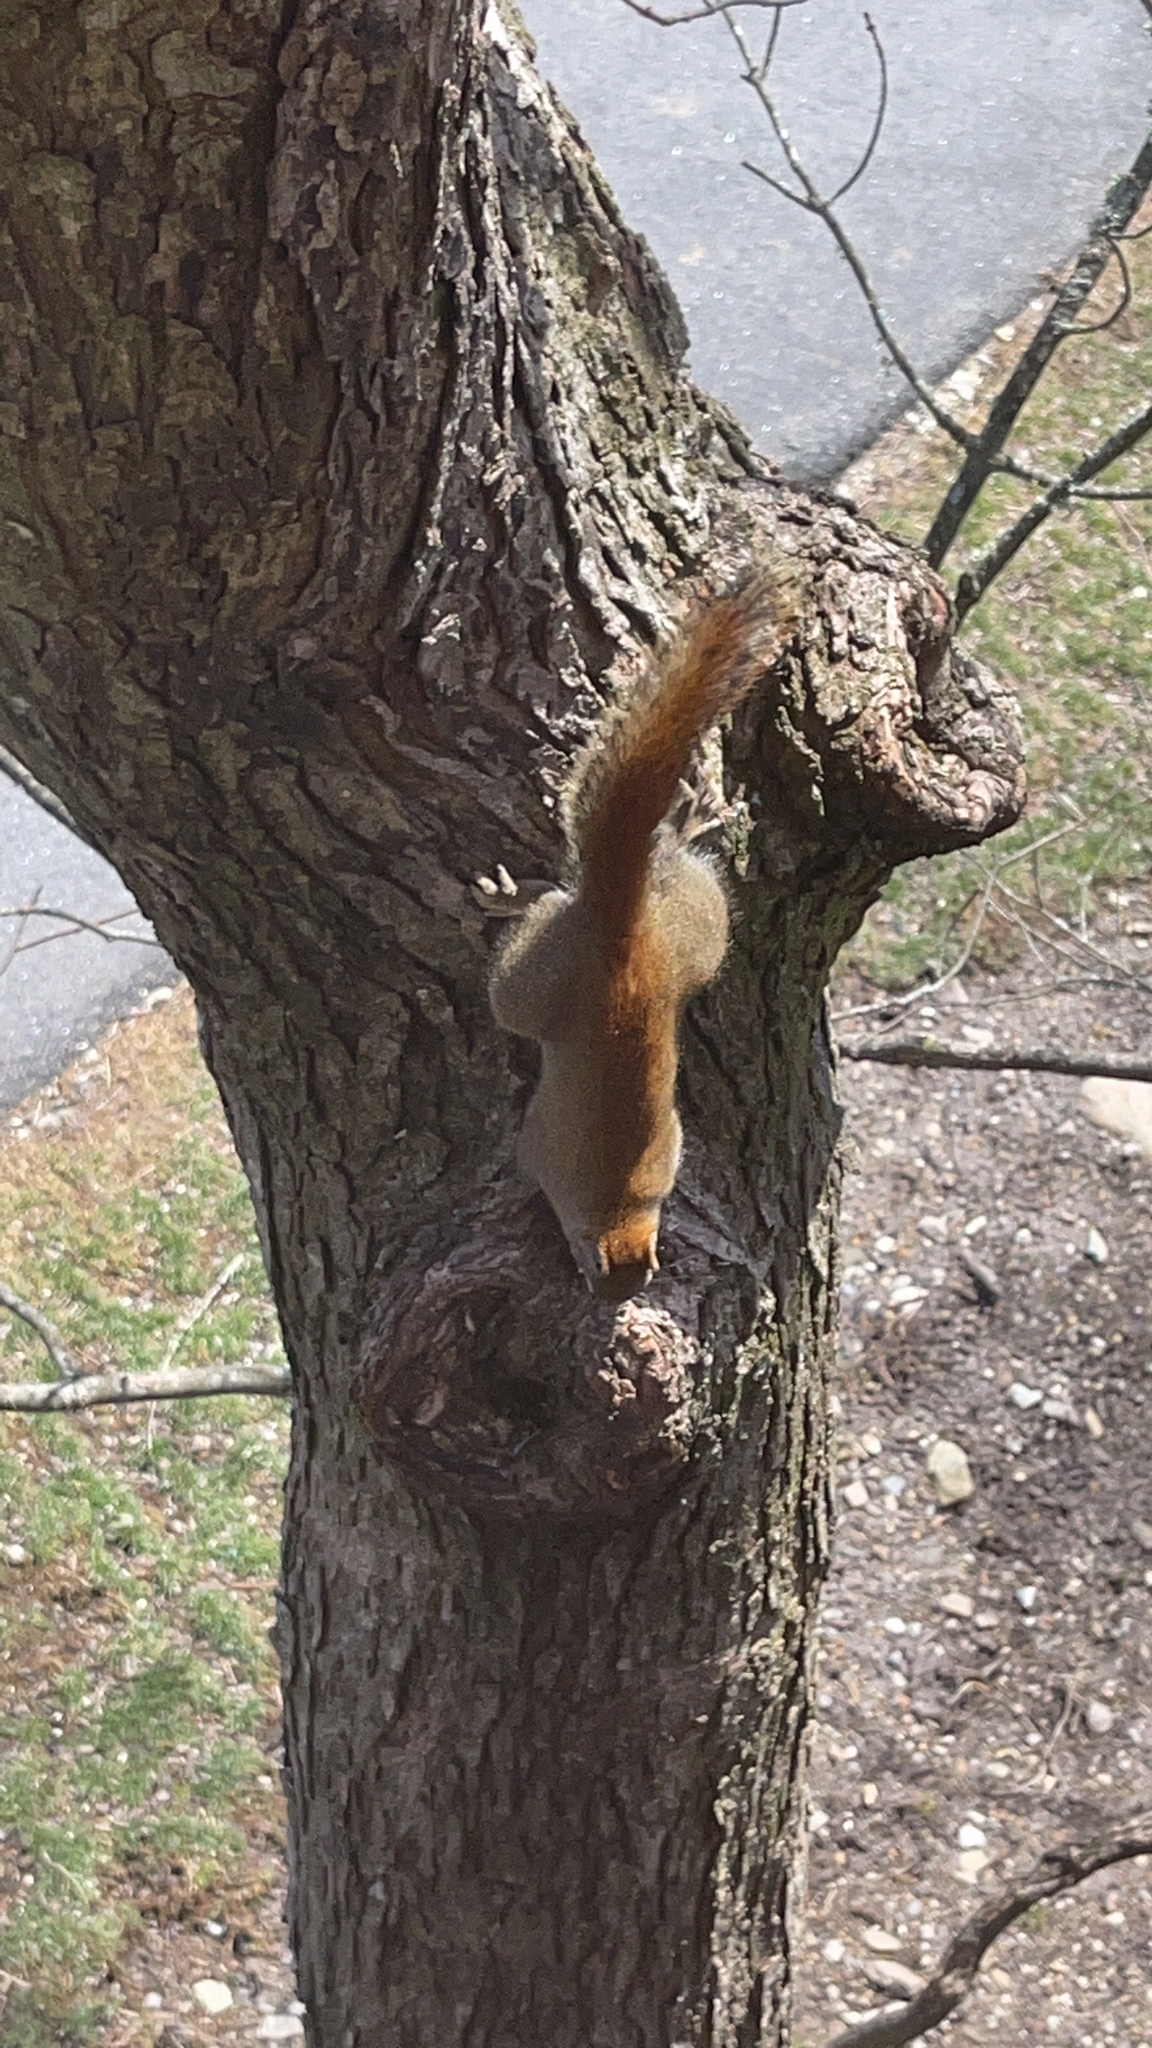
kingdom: Animalia
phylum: Chordata
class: Mammalia
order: Rodentia
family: Sciuridae
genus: Tamiasciurus
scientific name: Tamiasciurus hudsonicus
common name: Red squirrel
